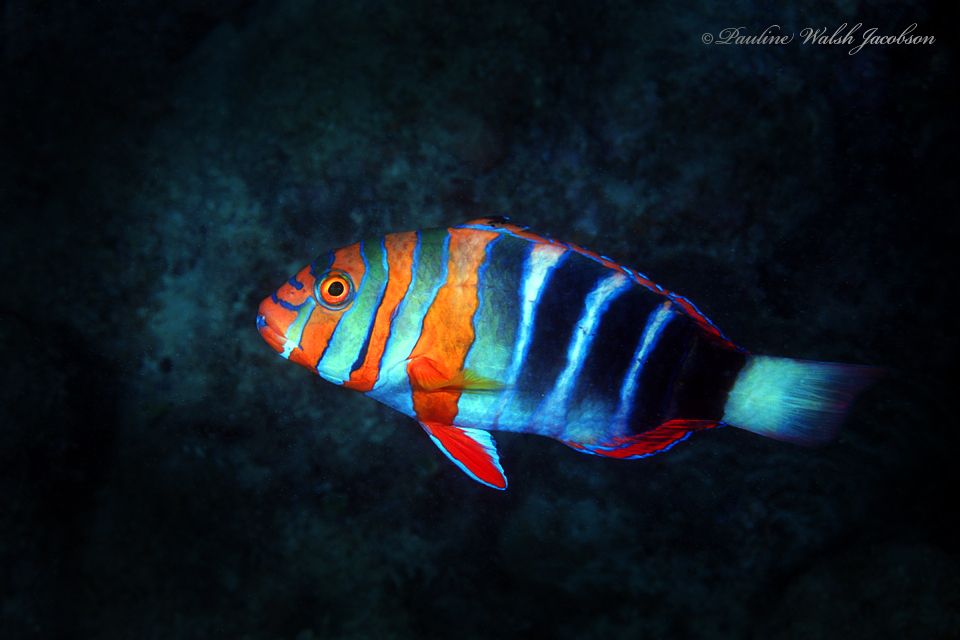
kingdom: Animalia
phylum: Chordata
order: Perciformes
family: Labridae
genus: Choerodon
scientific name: Choerodon fasciatus
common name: Harlequin tuskfish
